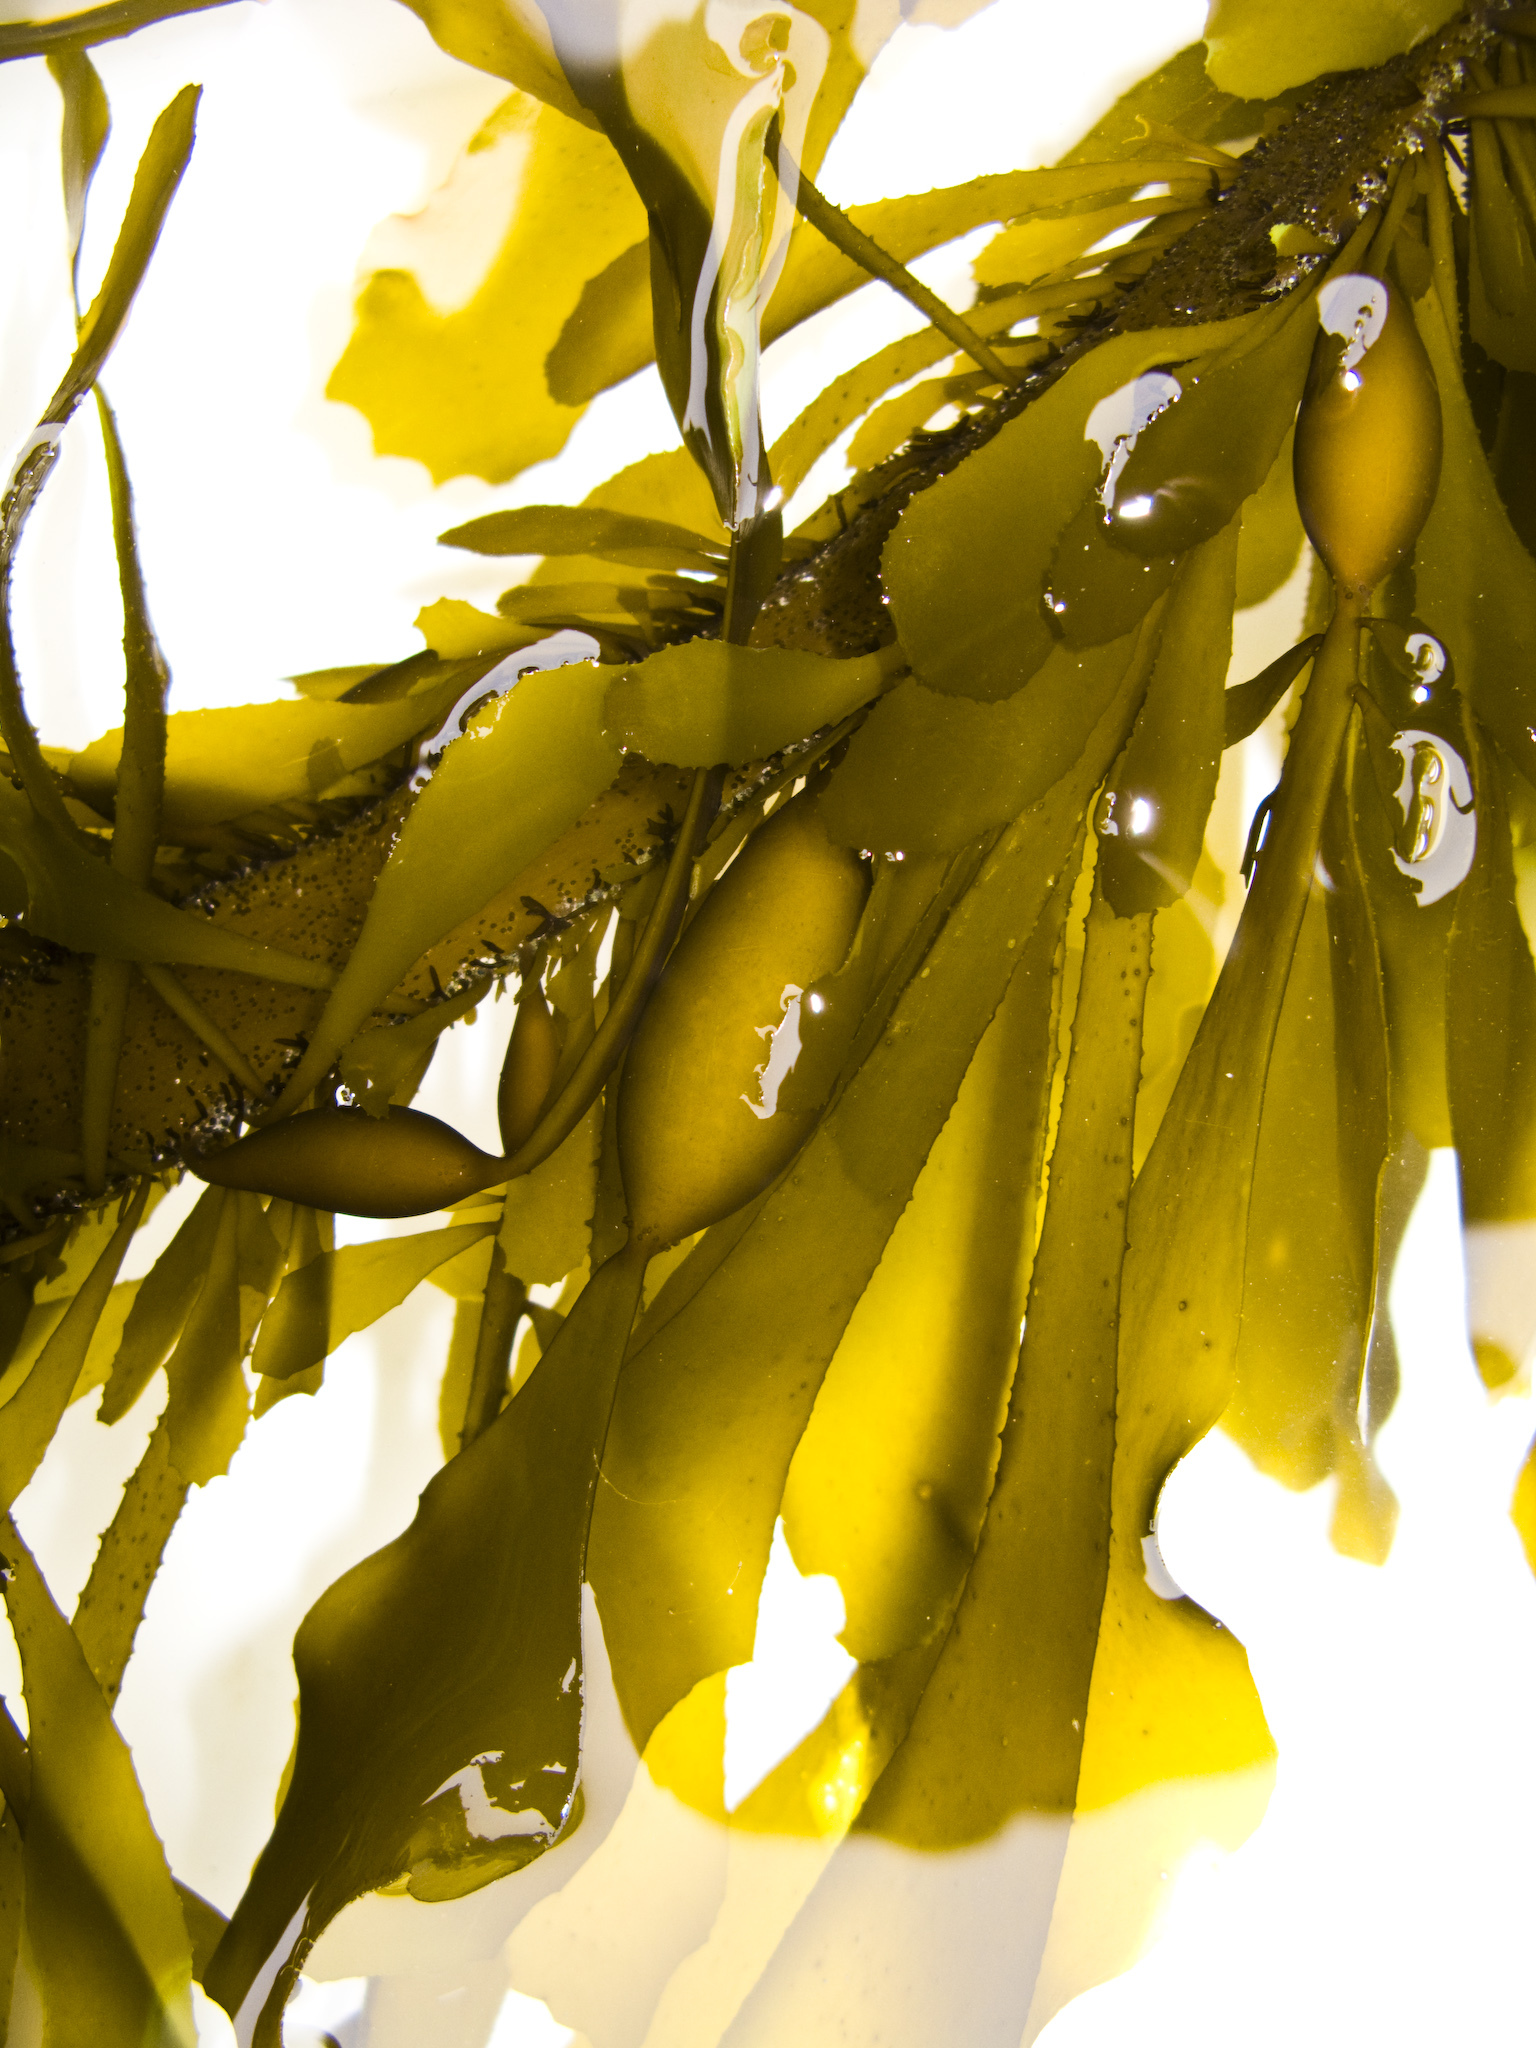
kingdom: Chromista
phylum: Ochrophyta
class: Phaeophyceae
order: Laminariales
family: Lessoniaceae
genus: Egregia
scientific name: Egregia menziesii
